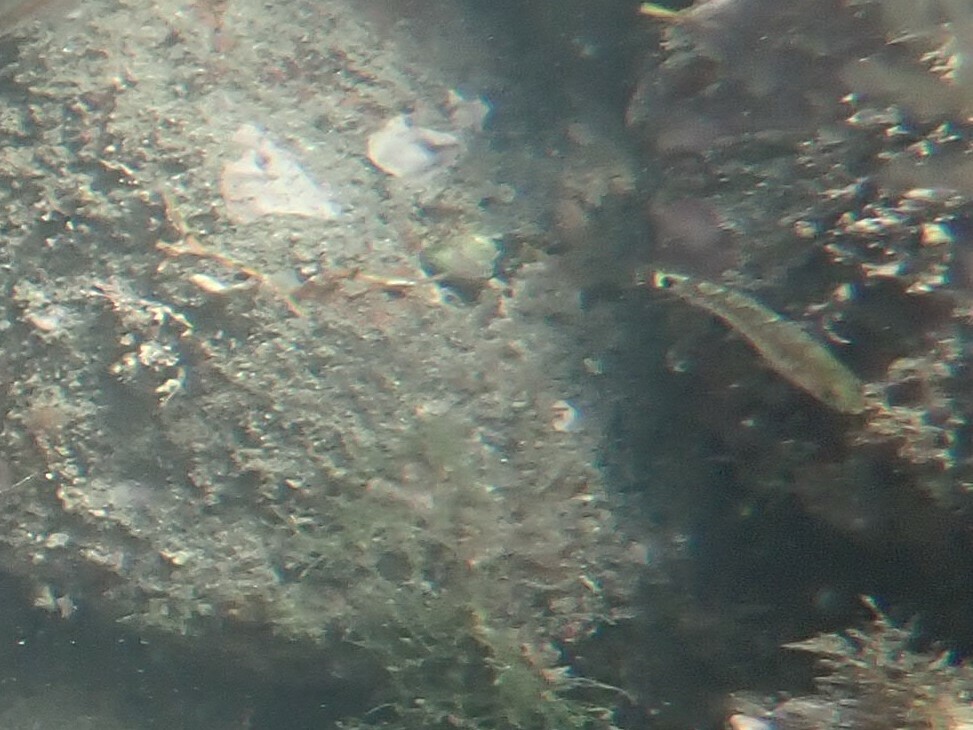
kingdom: Animalia
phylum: Chordata
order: Perciformes
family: Gobiidae
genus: Gobiusculus
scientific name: Gobiusculus flavescens
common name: Two-spotted goby
